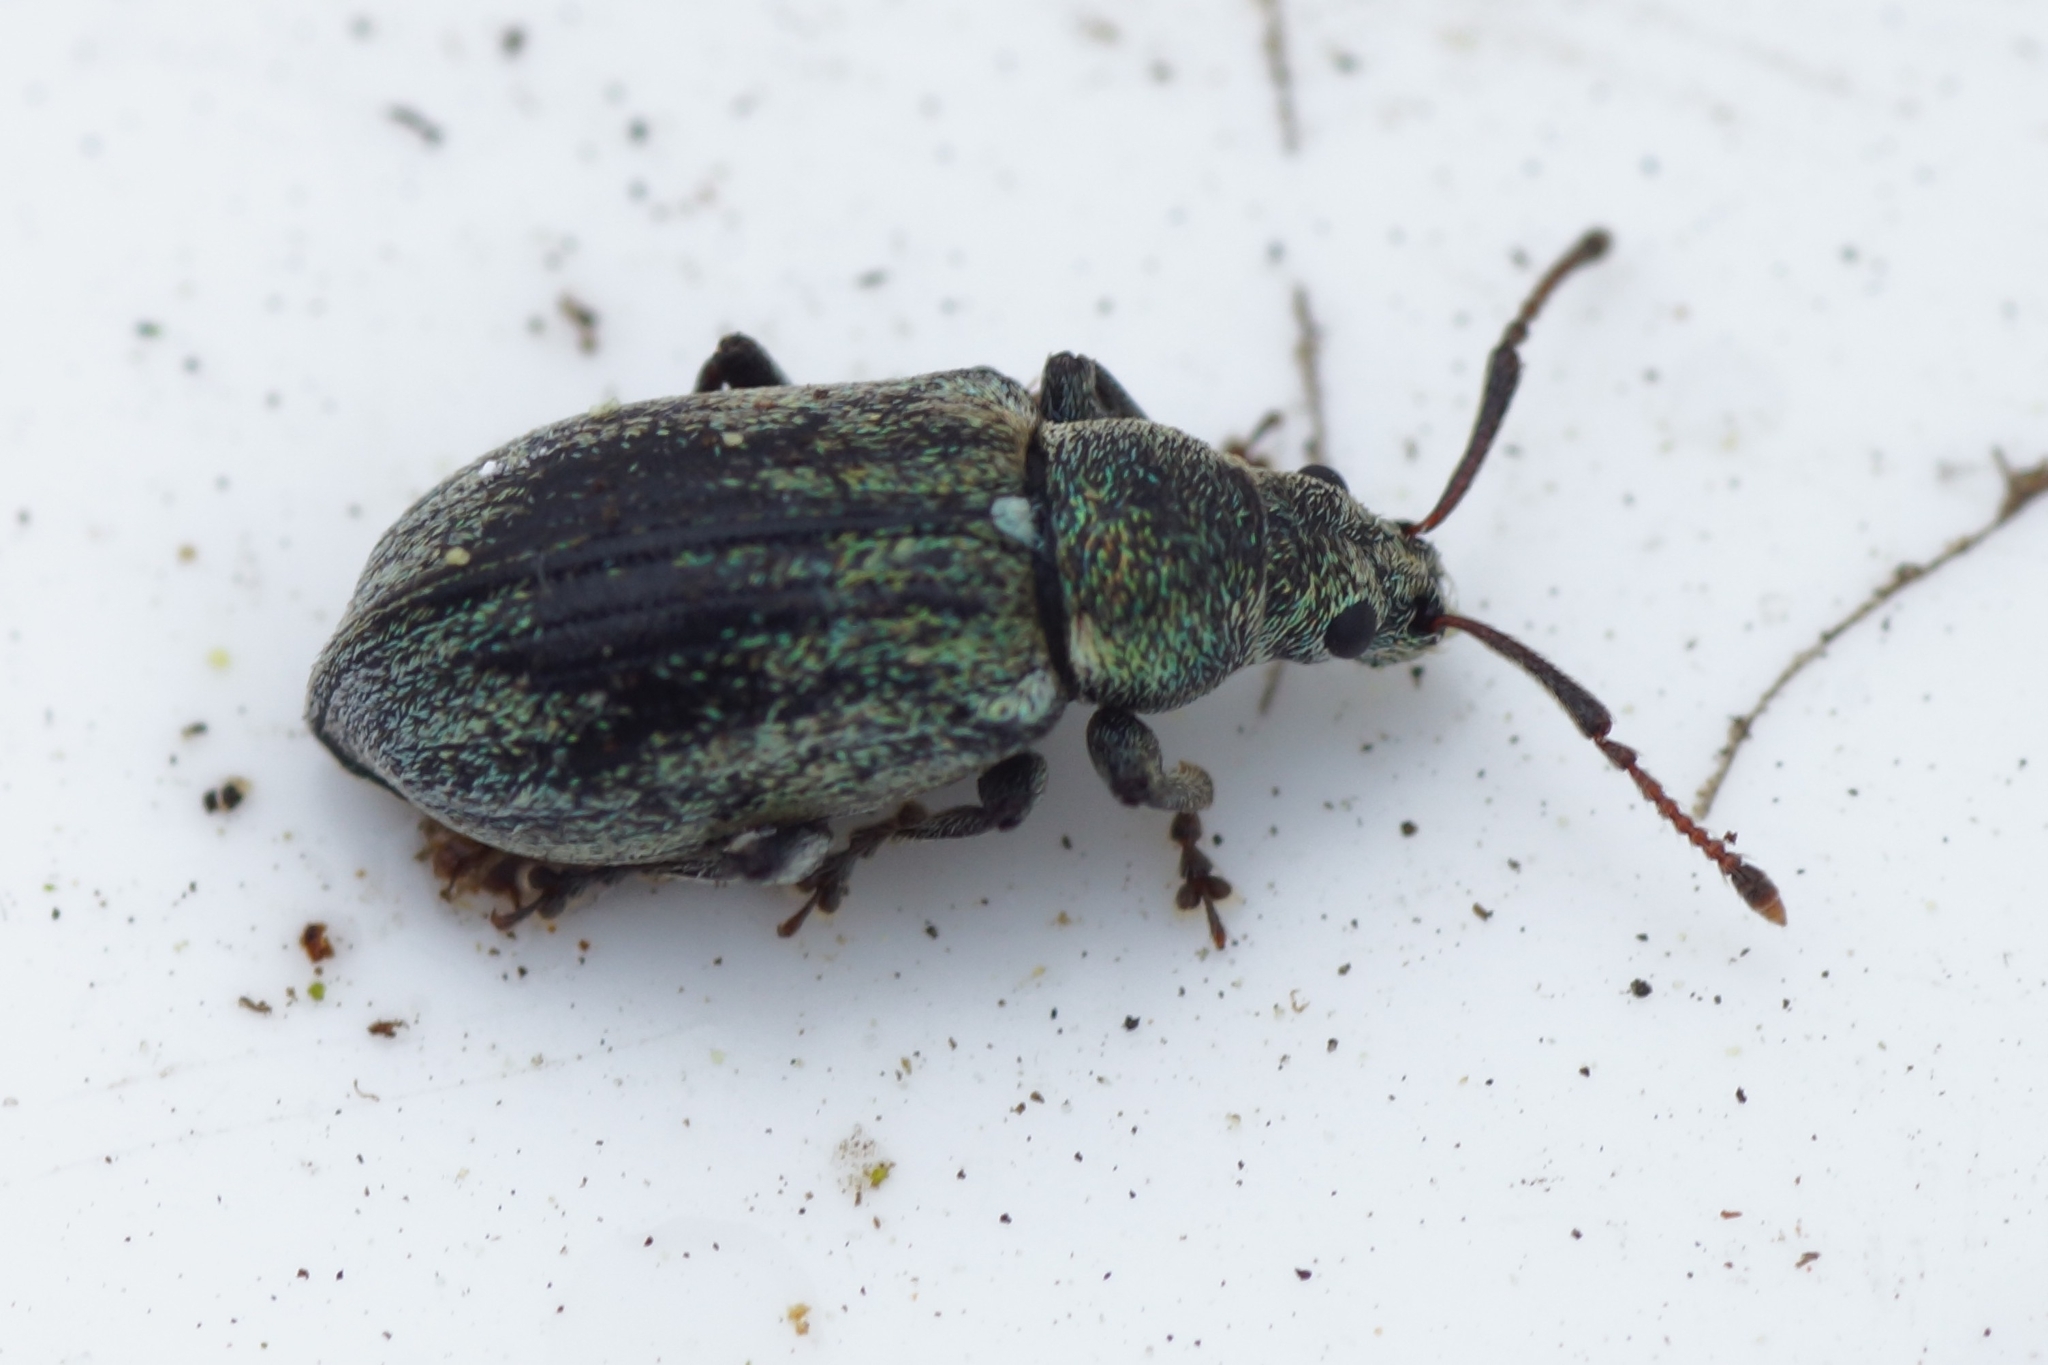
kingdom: Animalia
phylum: Arthropoda
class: Insecta
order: Coleoptera
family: Curculionidae
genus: Phyllobius
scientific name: Phyllobius pyri
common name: Common leaf weevil
